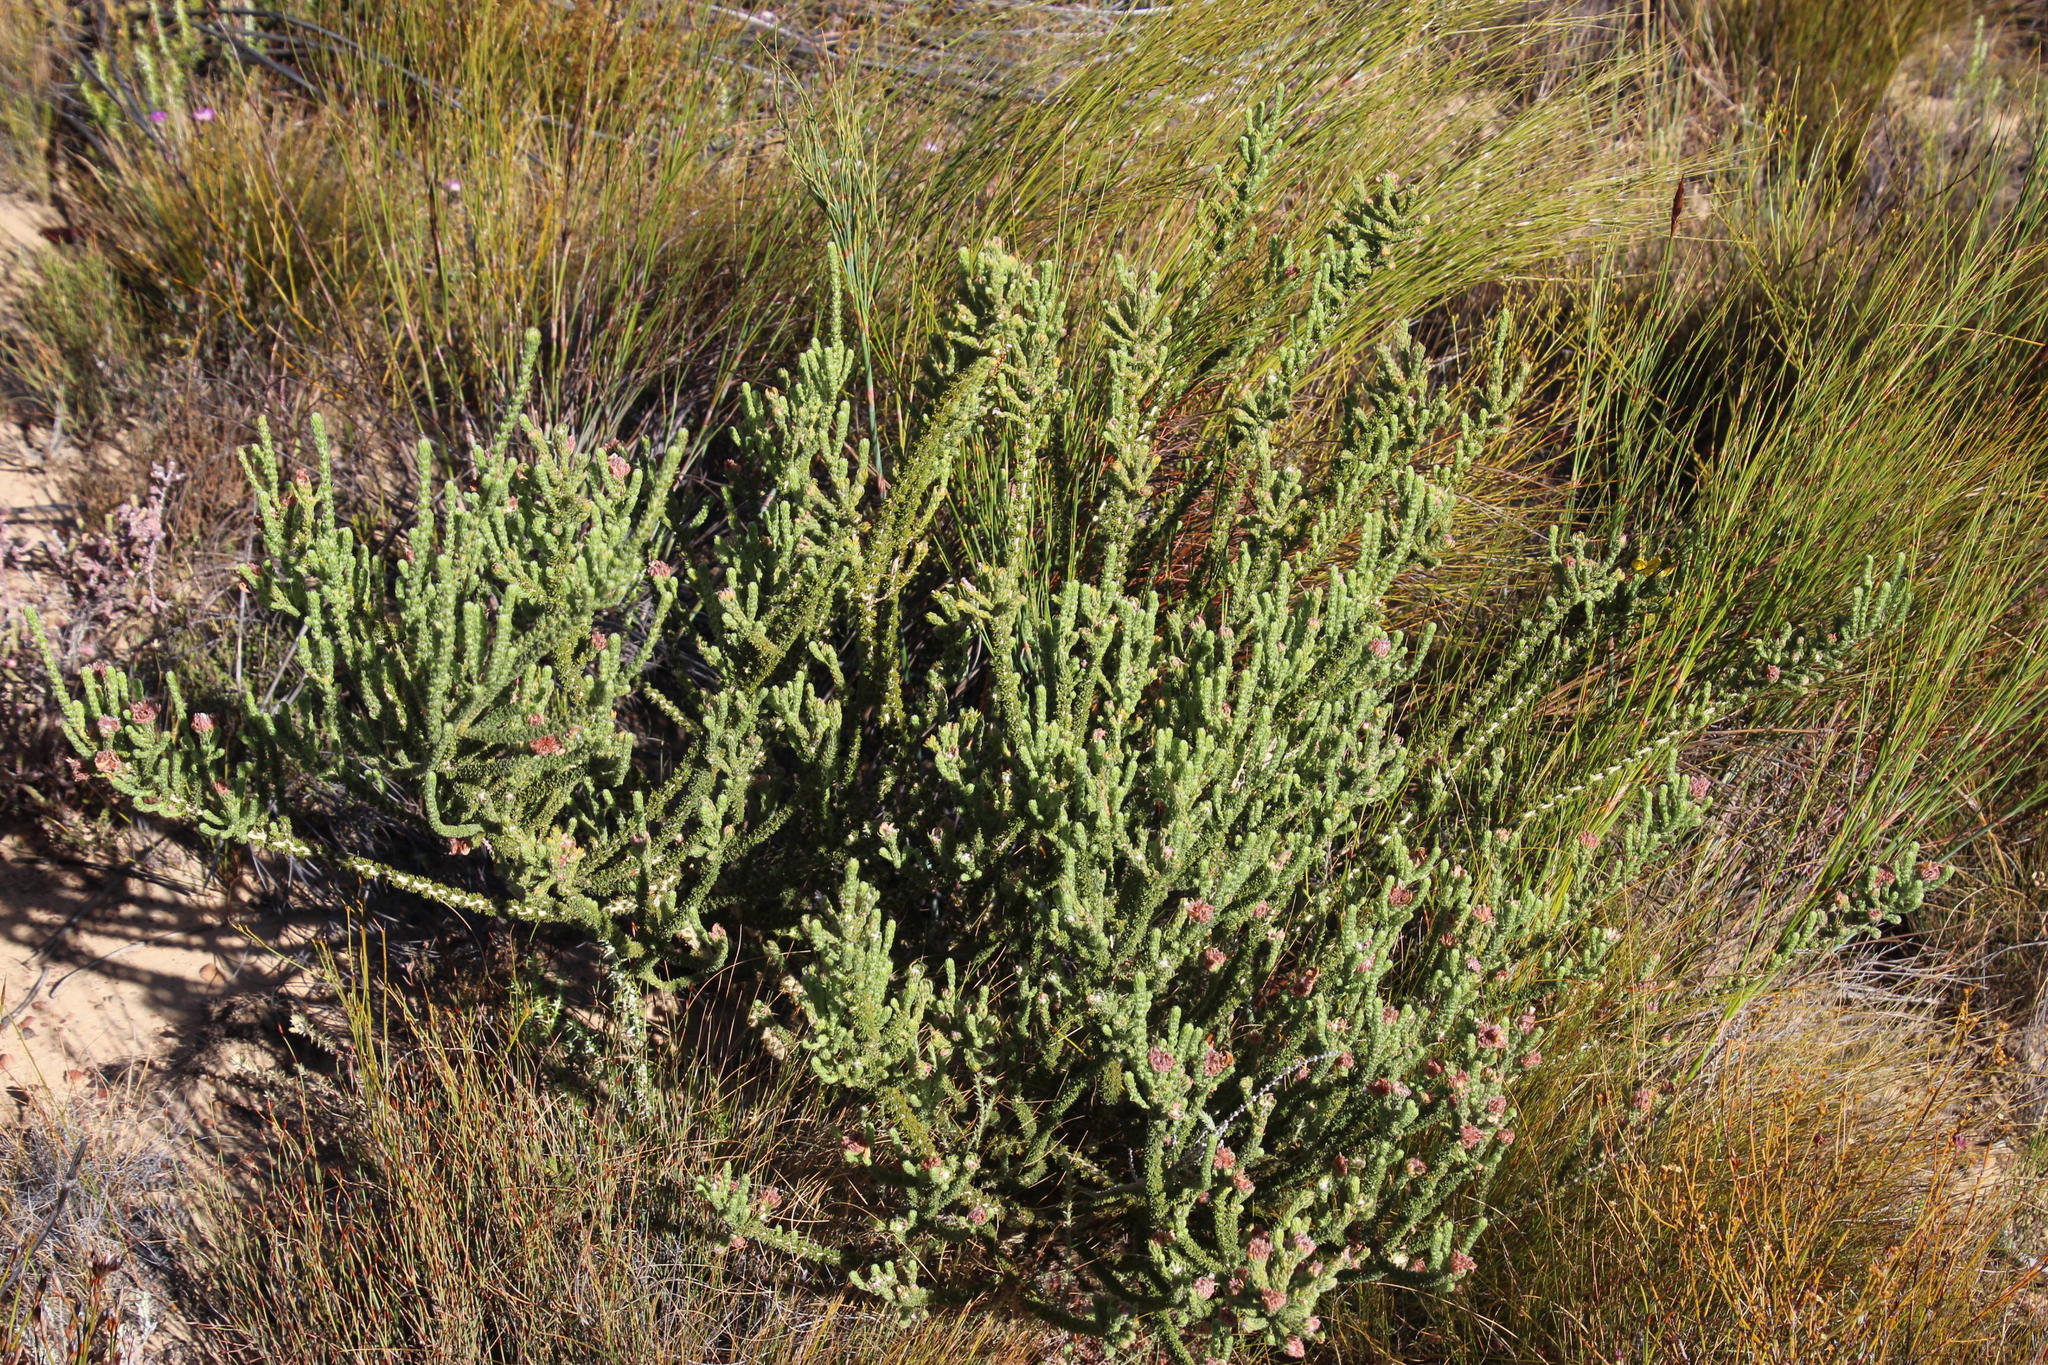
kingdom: Plantae
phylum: Tracheophyta
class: Magnoliopsida
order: Fabales
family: Fabaceae
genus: Aspalathus
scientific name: Aspalathus triquetra
